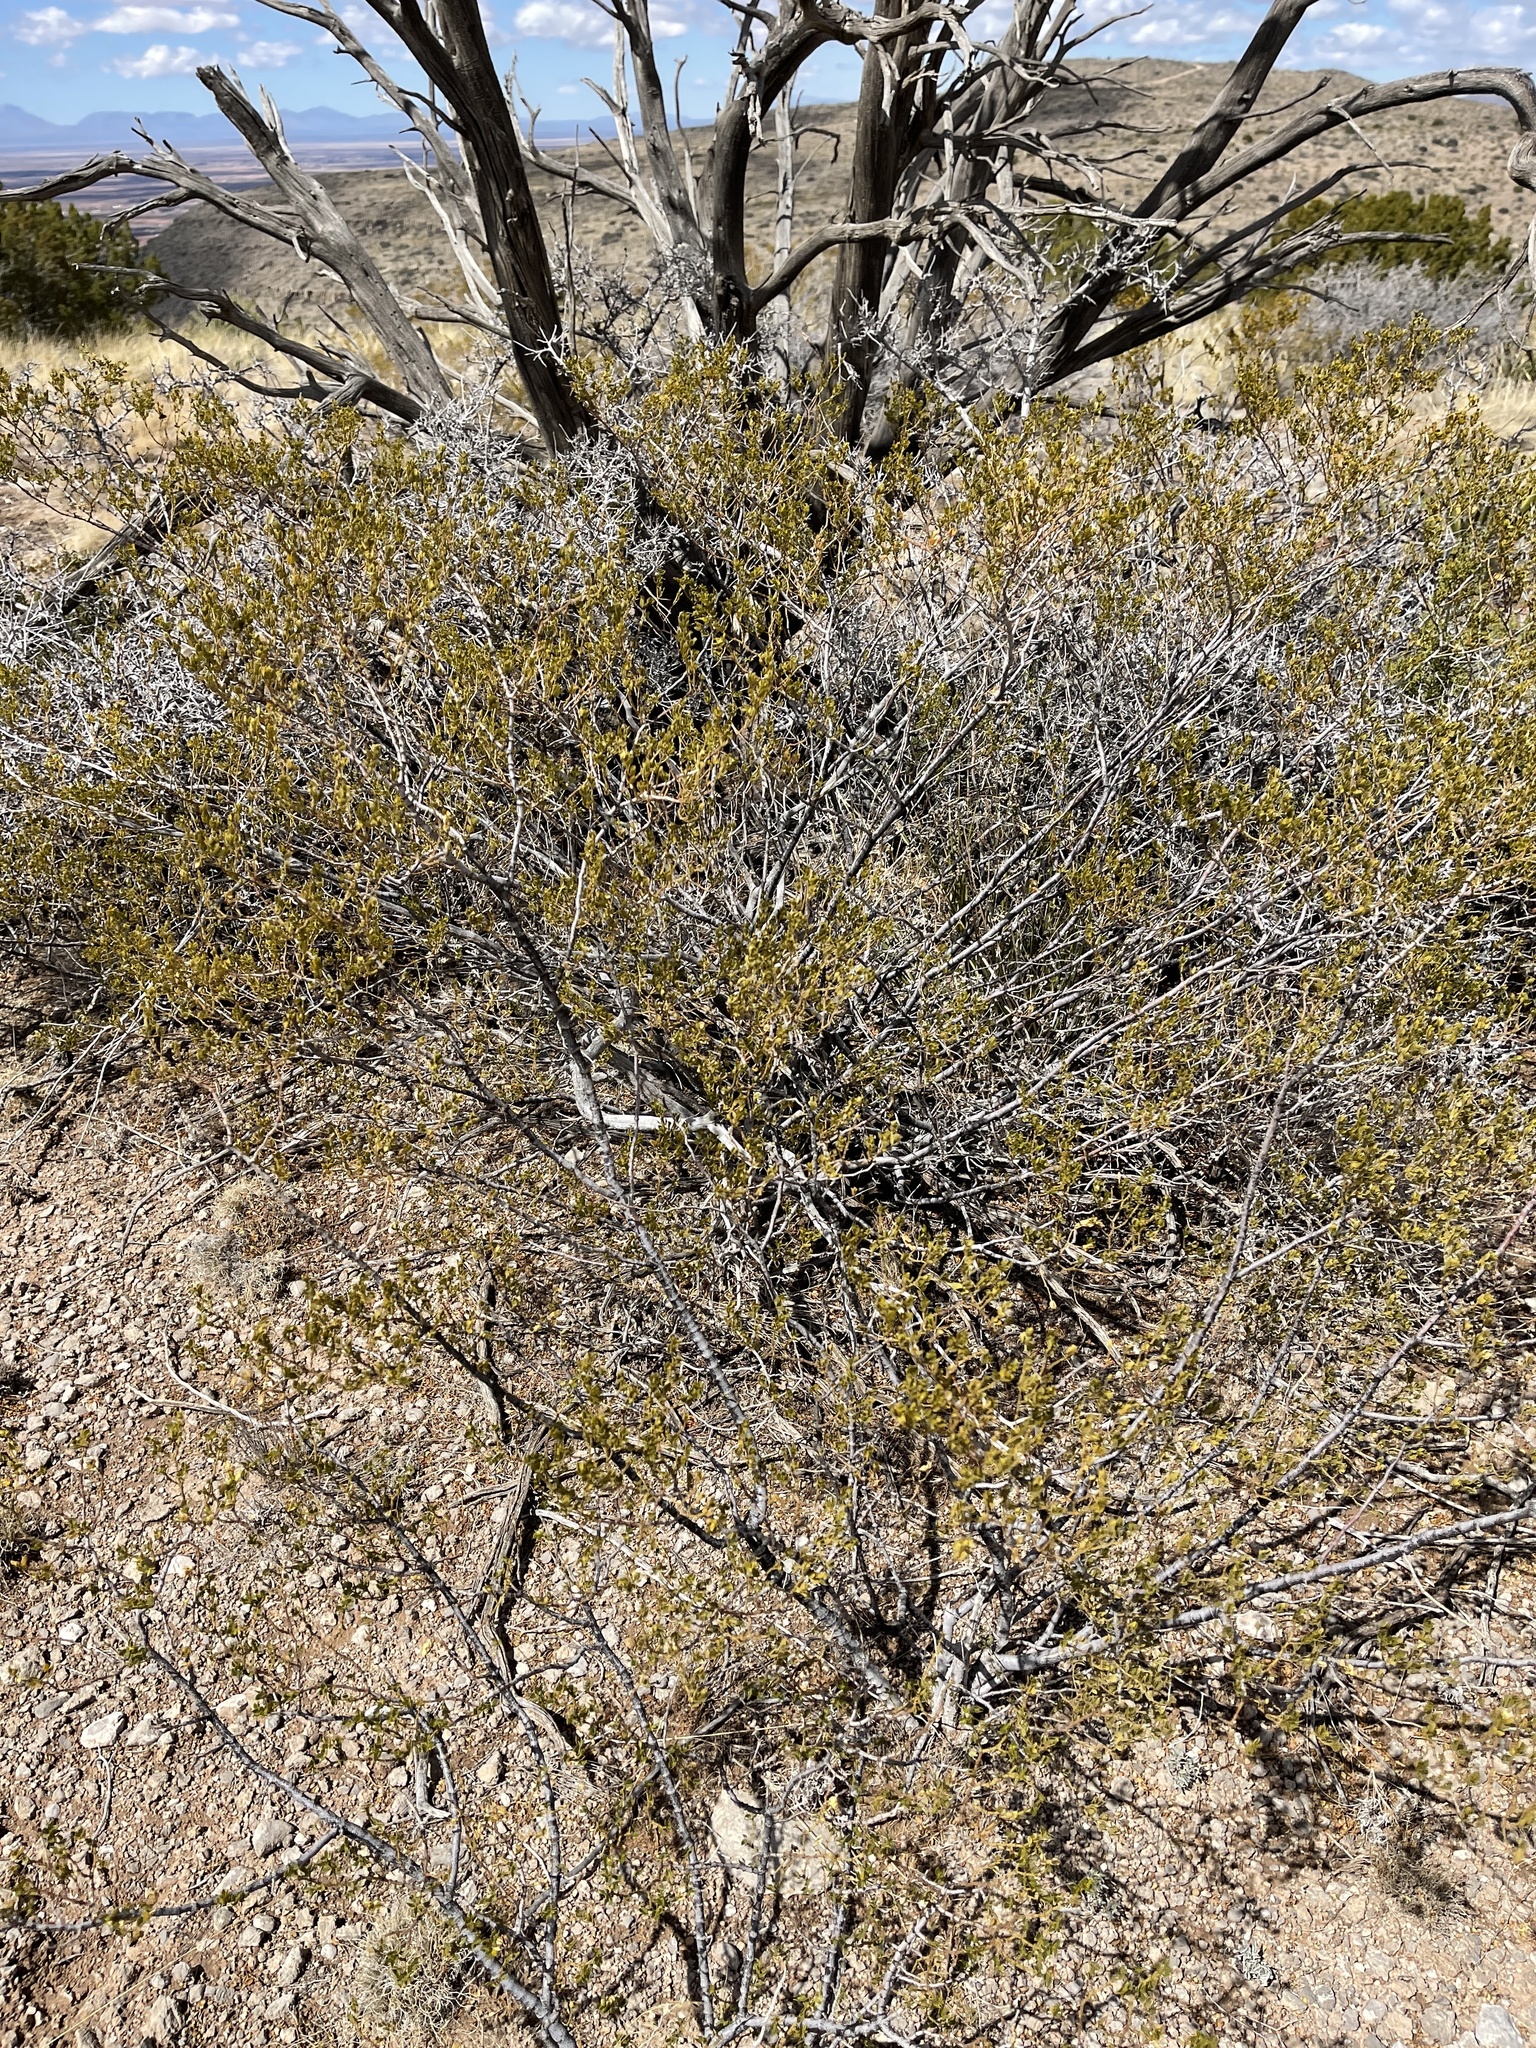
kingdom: Plantae
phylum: Tracheophyta
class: Magnoliopsida
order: Zygophyllales
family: Zygophyllaceae
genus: Larrea
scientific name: Larrea tridentata
